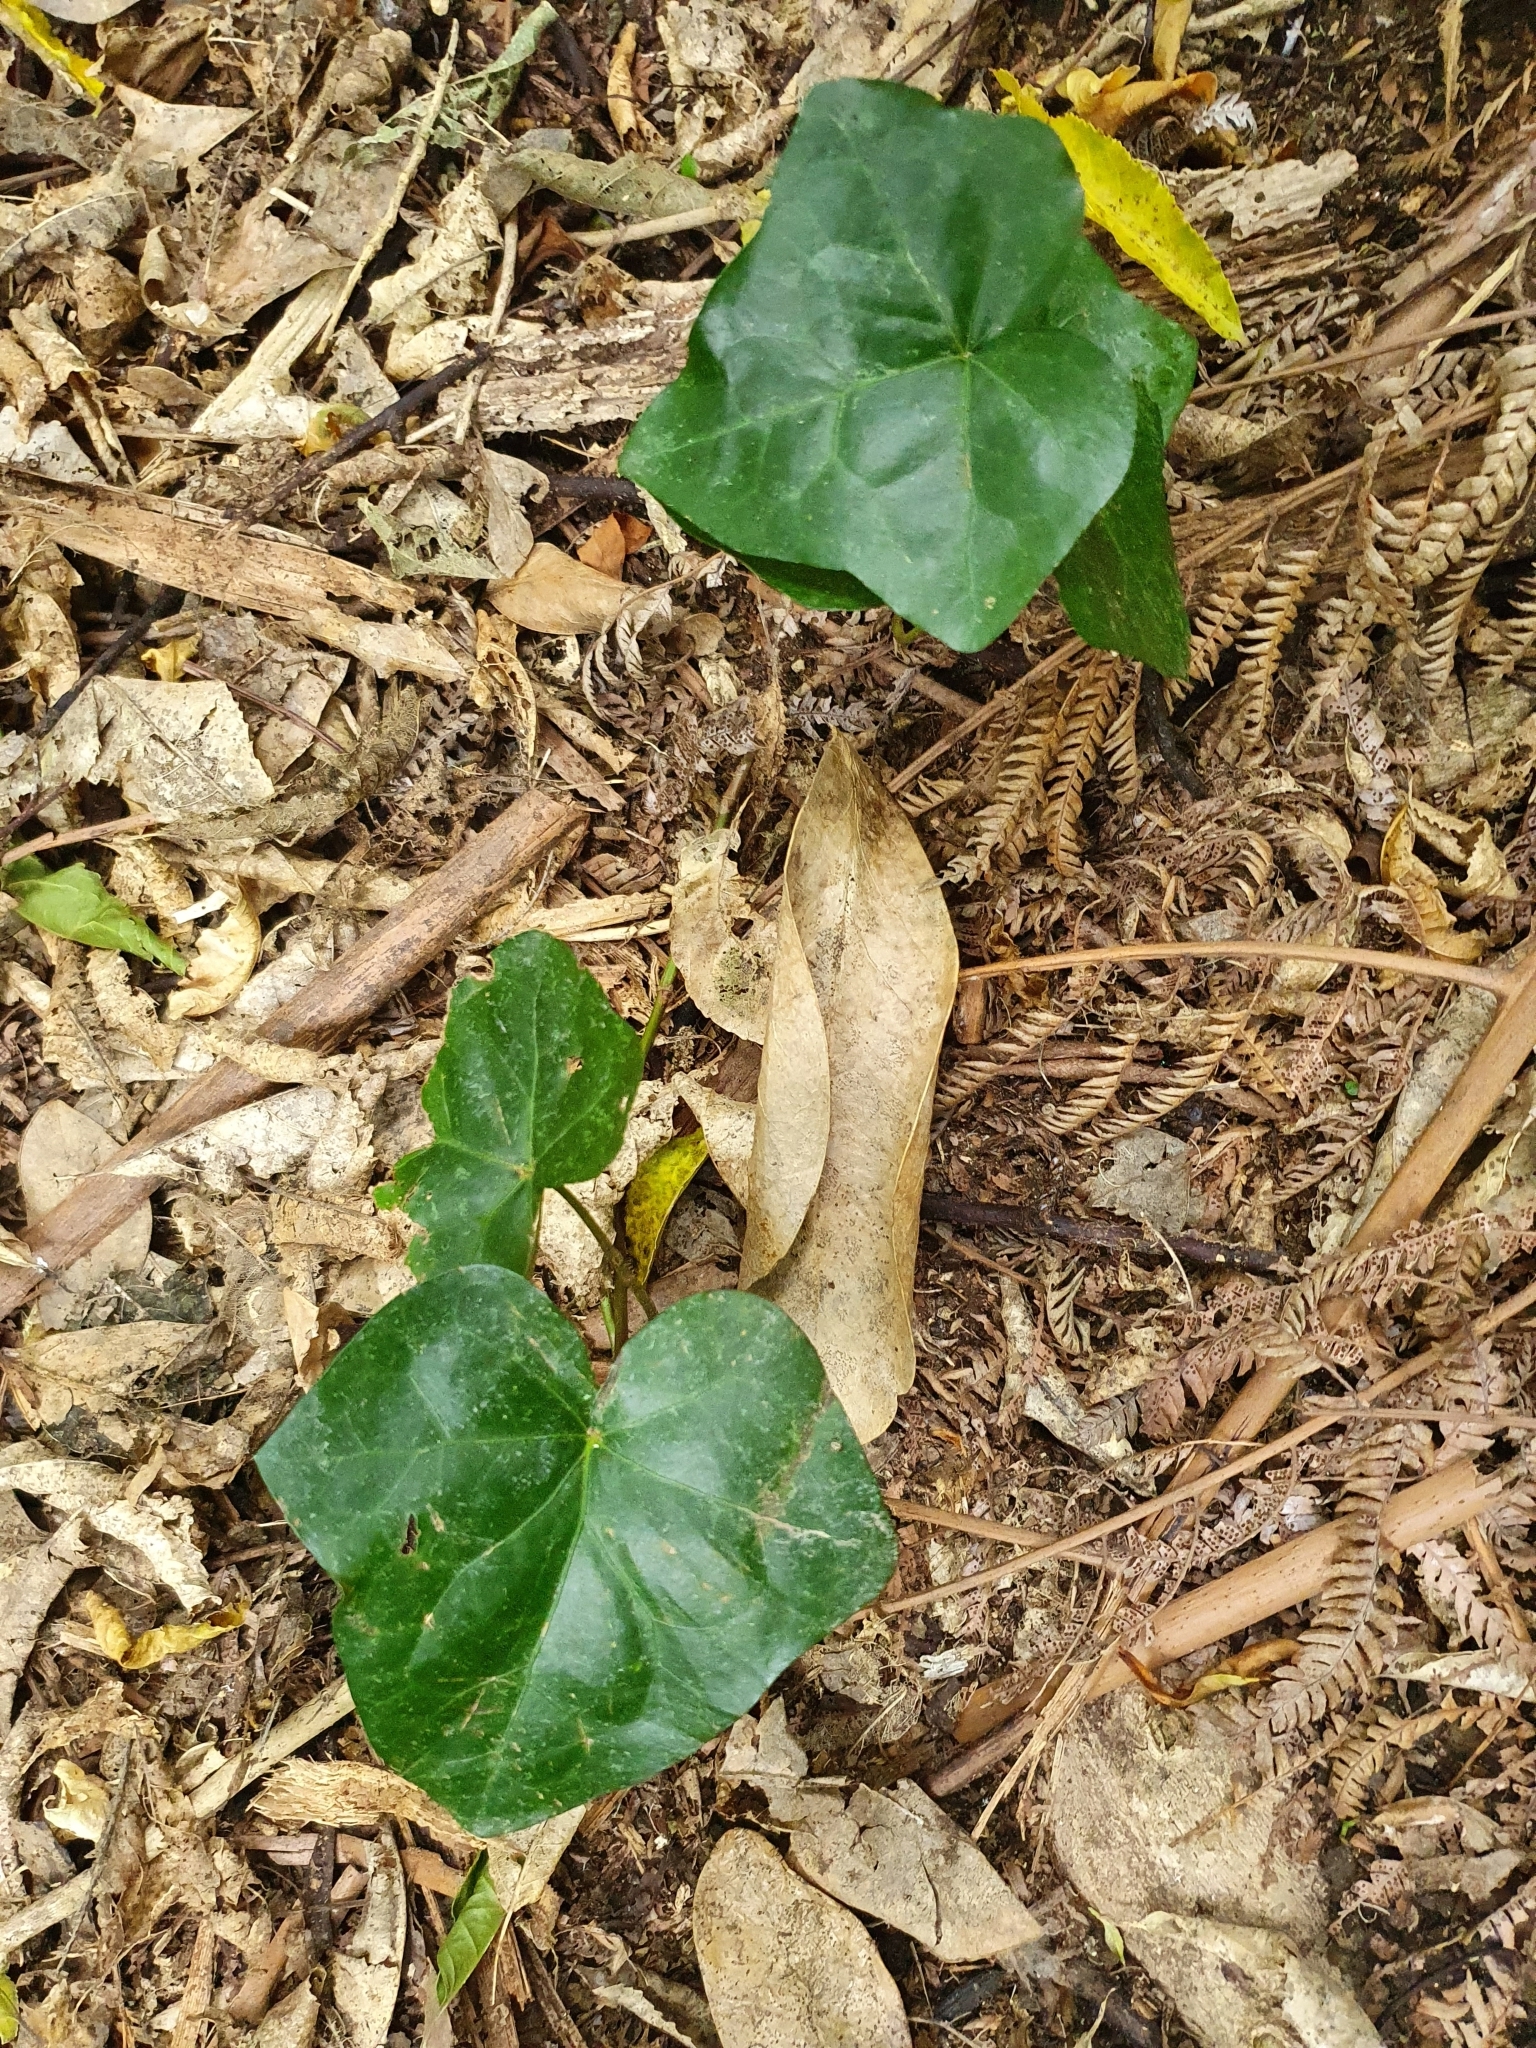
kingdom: Plantae
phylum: Tracheophyta
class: Magnoliopsida
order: Apiales
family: Araliaceae
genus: Hedera
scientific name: Hedera canariensis
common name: Madeira ivy
